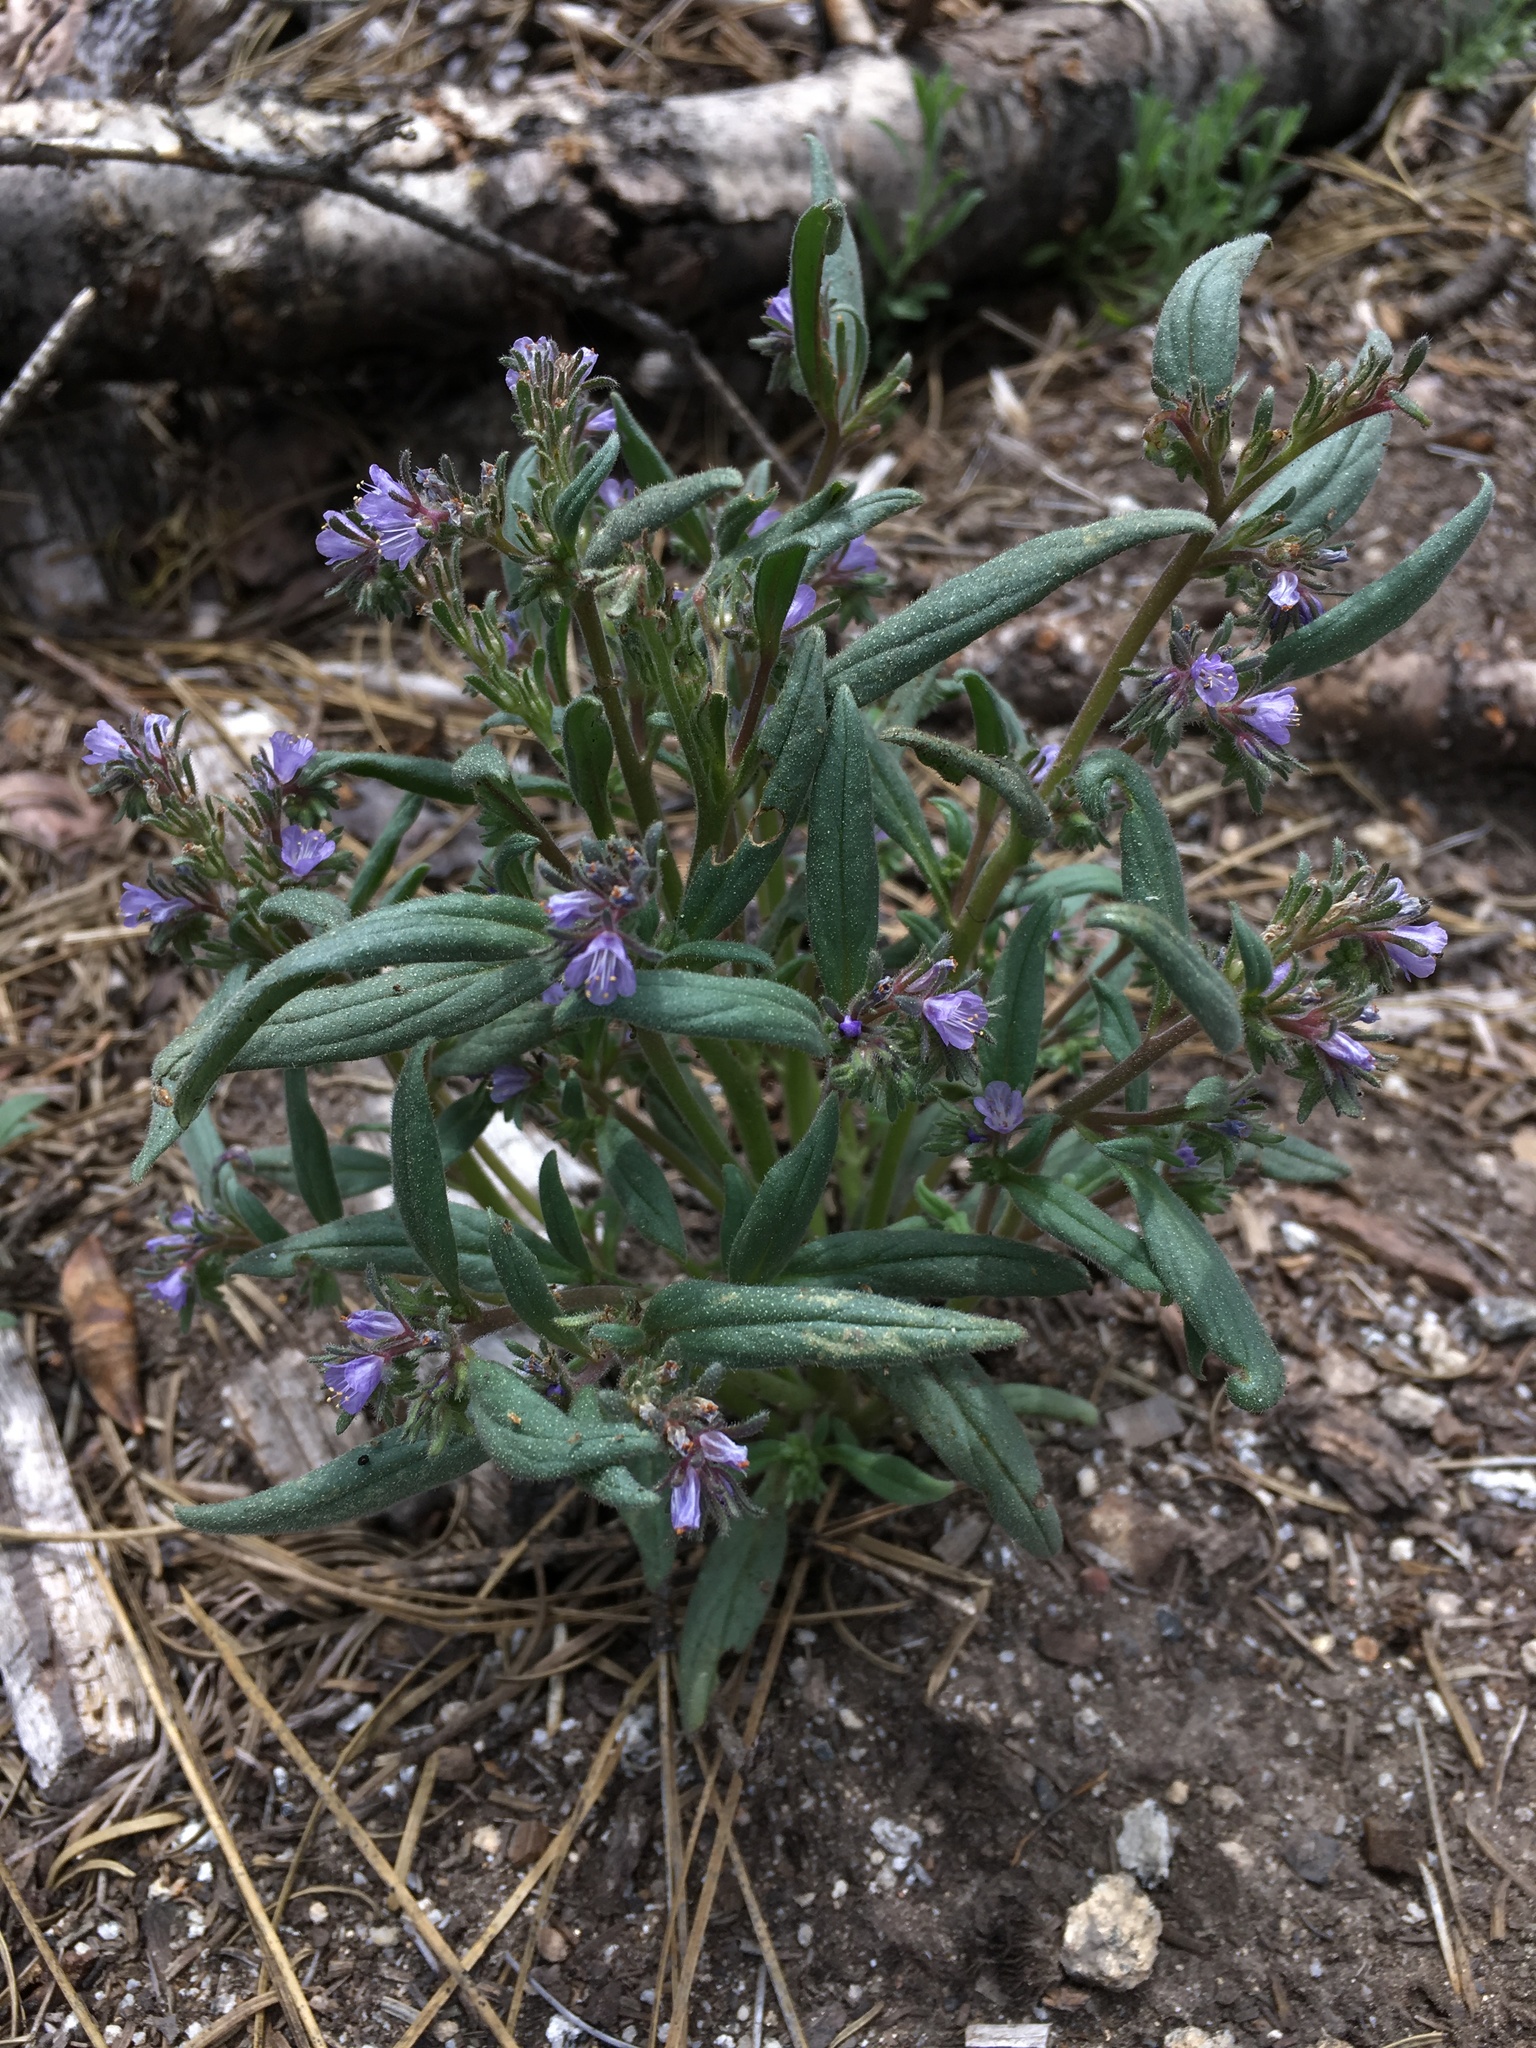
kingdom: Plantae
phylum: Tracheophyta
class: Magnoliopsida
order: Boraginales
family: Hydrophyllaceae
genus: Phacelia
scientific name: Phacelia quickii
